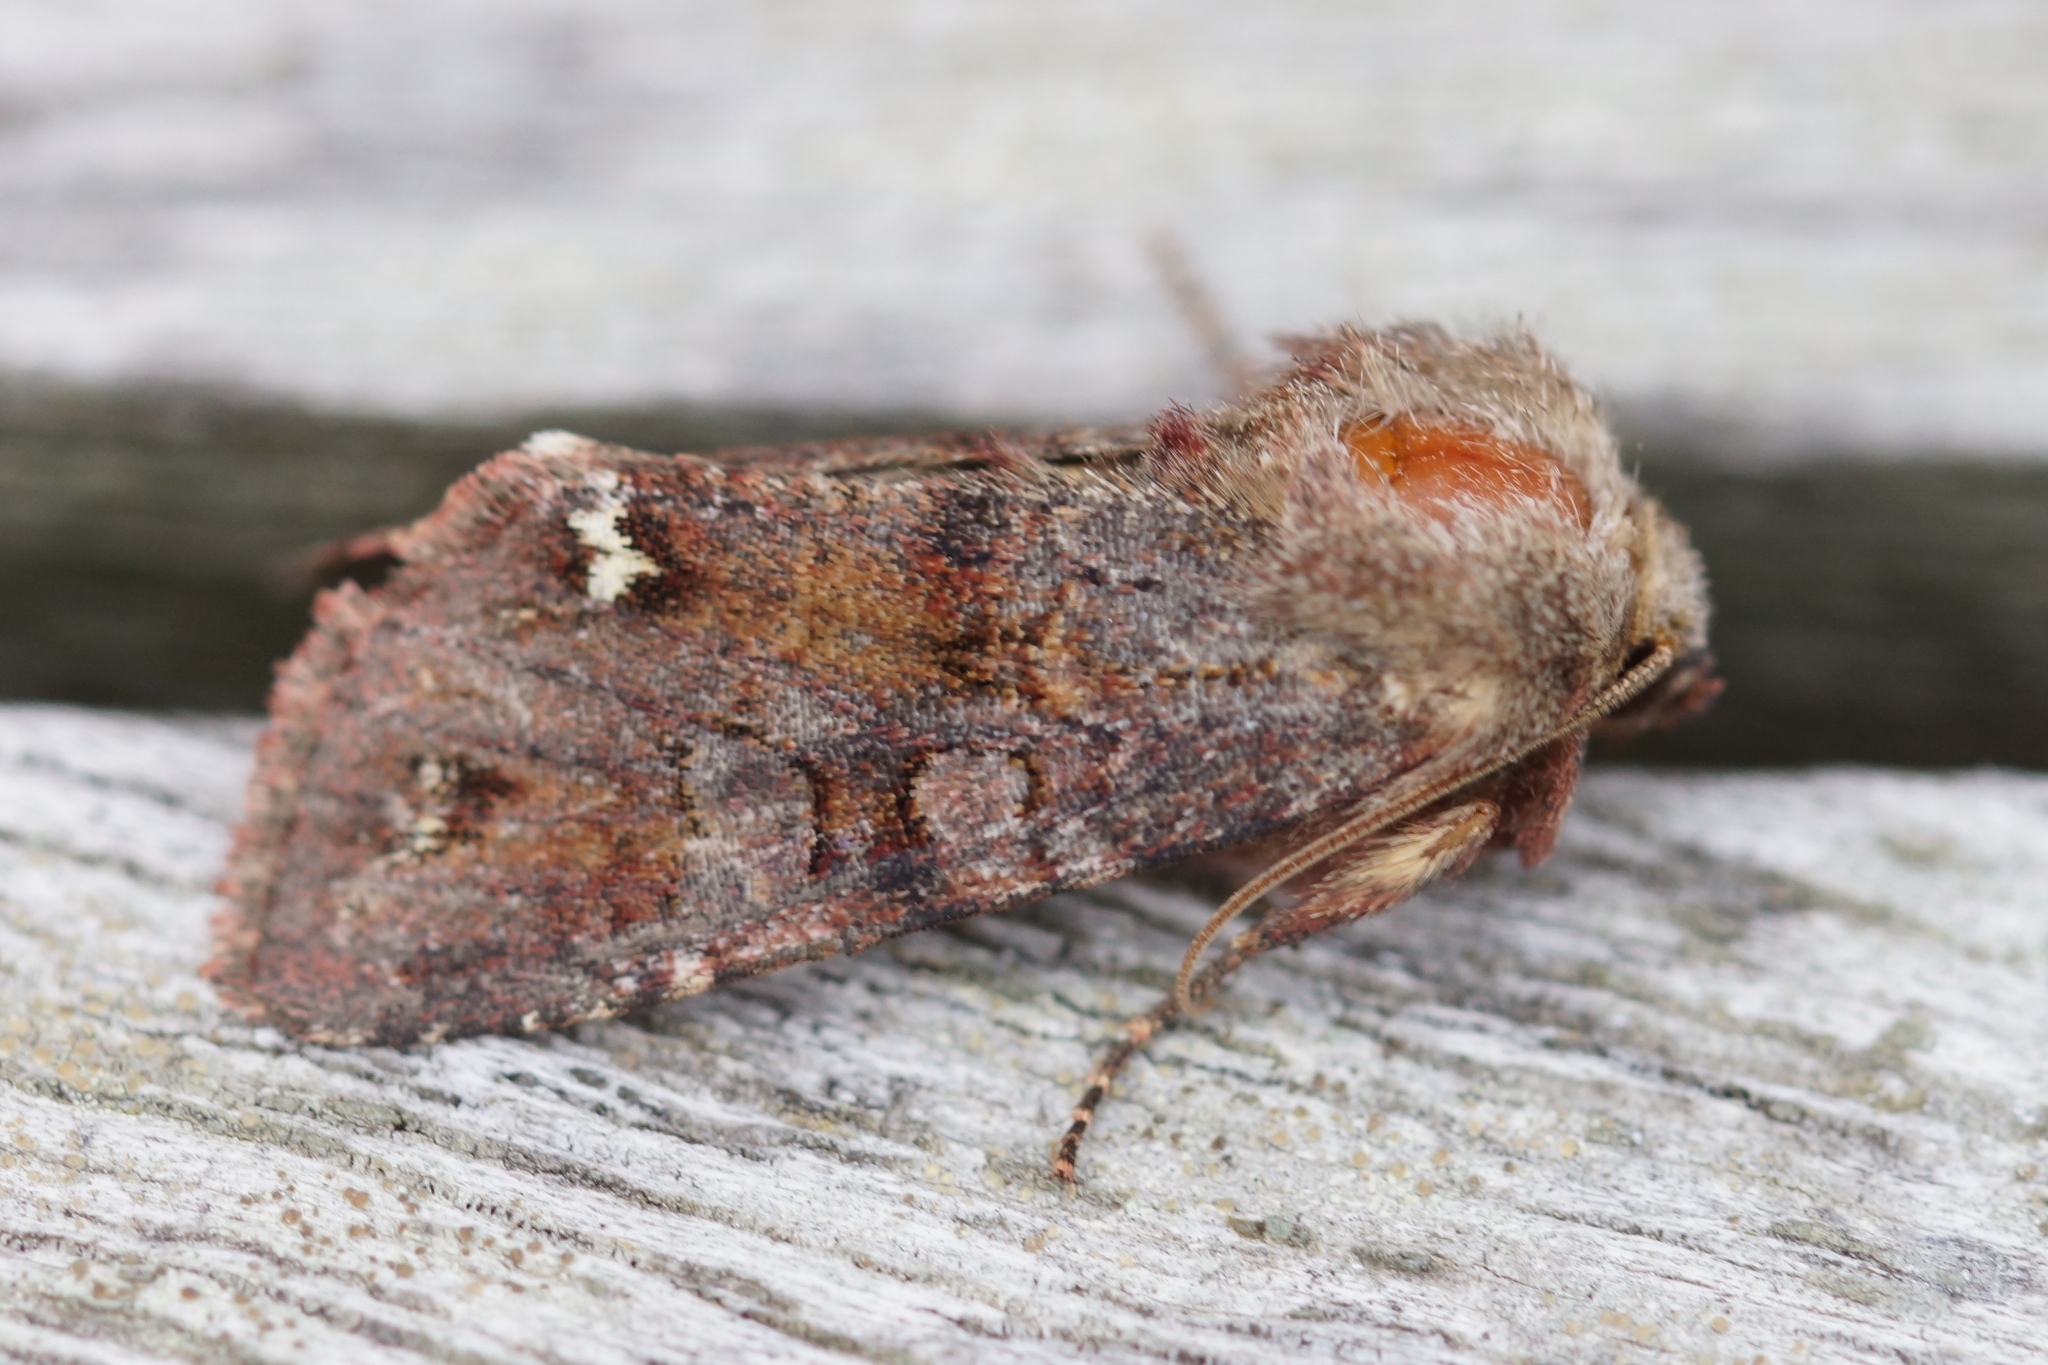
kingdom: Animalia
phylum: Arthropoda
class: Insecta
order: Lepidoptera
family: Noctuidae
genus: Ceramica
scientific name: Ceramica pisi
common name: Broom moth
